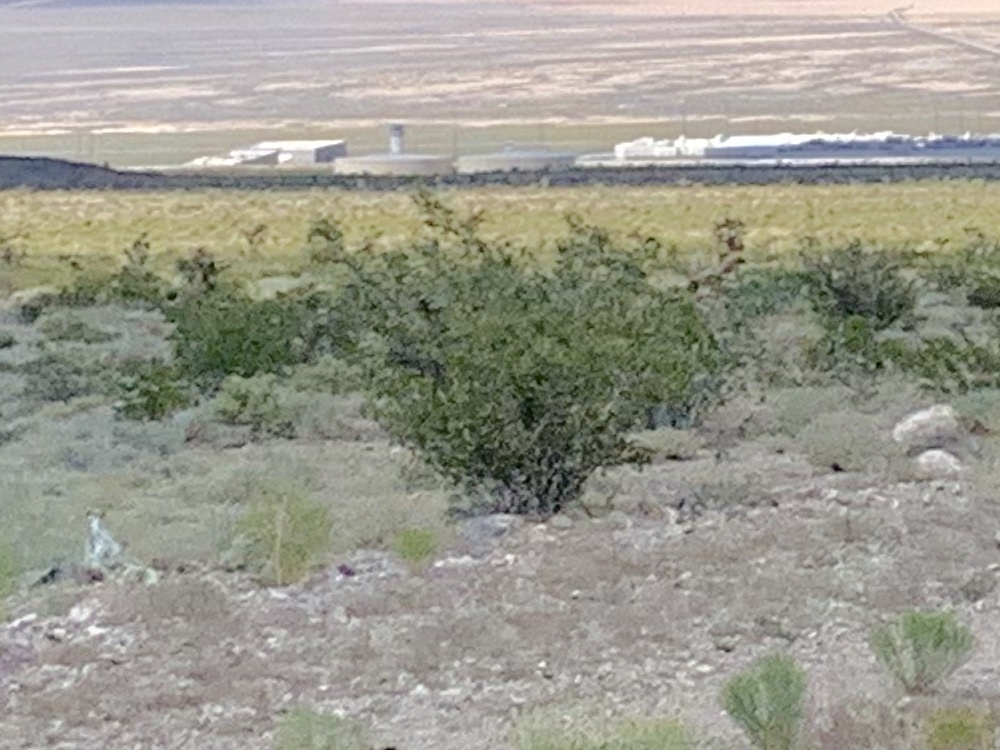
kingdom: Plantae
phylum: Tracheophyta
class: Magnoliopsida
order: Zygophyllales
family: Zygophyllaceae
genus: Larrea
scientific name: Larrea tridentata
